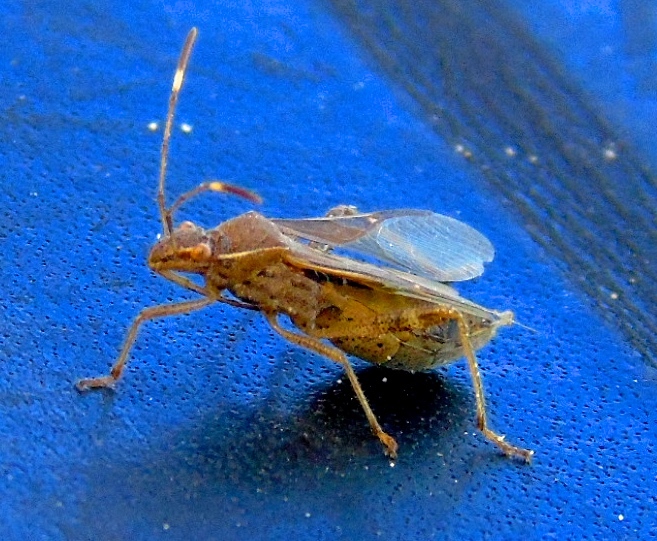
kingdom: Animalia
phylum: Arthropoda
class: Insecta
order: Hemiptera
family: Alydidae
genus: Burtinus
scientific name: Burtinus notatipennis
